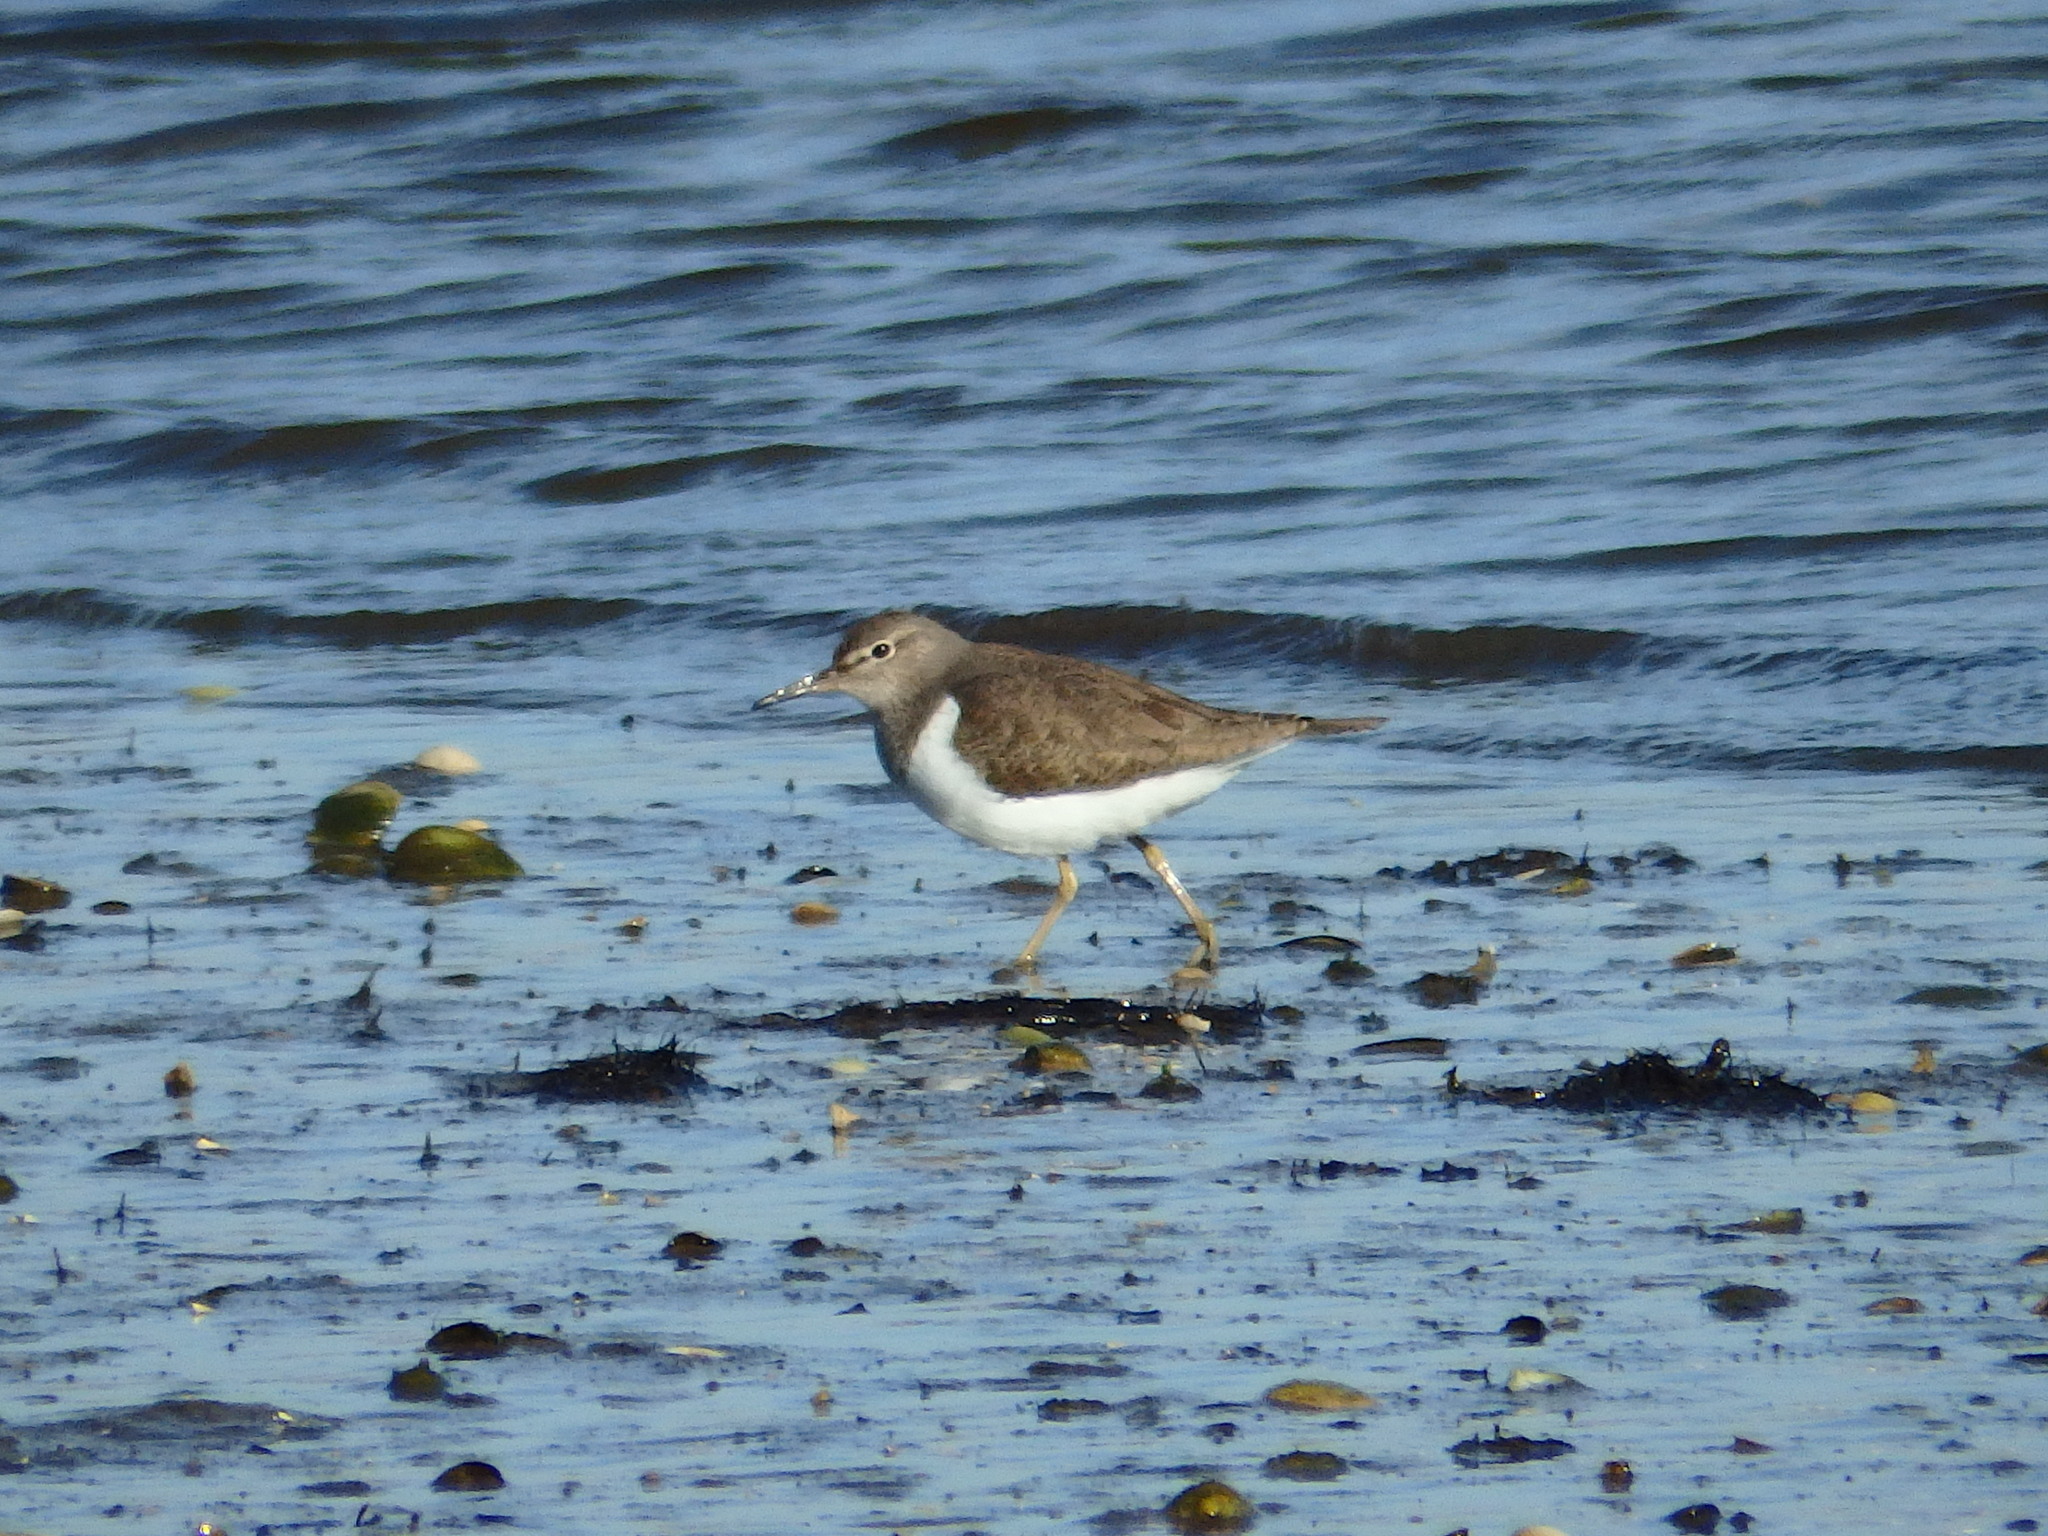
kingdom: Animalia
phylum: Chordata
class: Aves
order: Charadriiformes
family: Scolopacidae
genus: Actitis
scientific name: Actitis hypoleucos
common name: Common sandpiper
